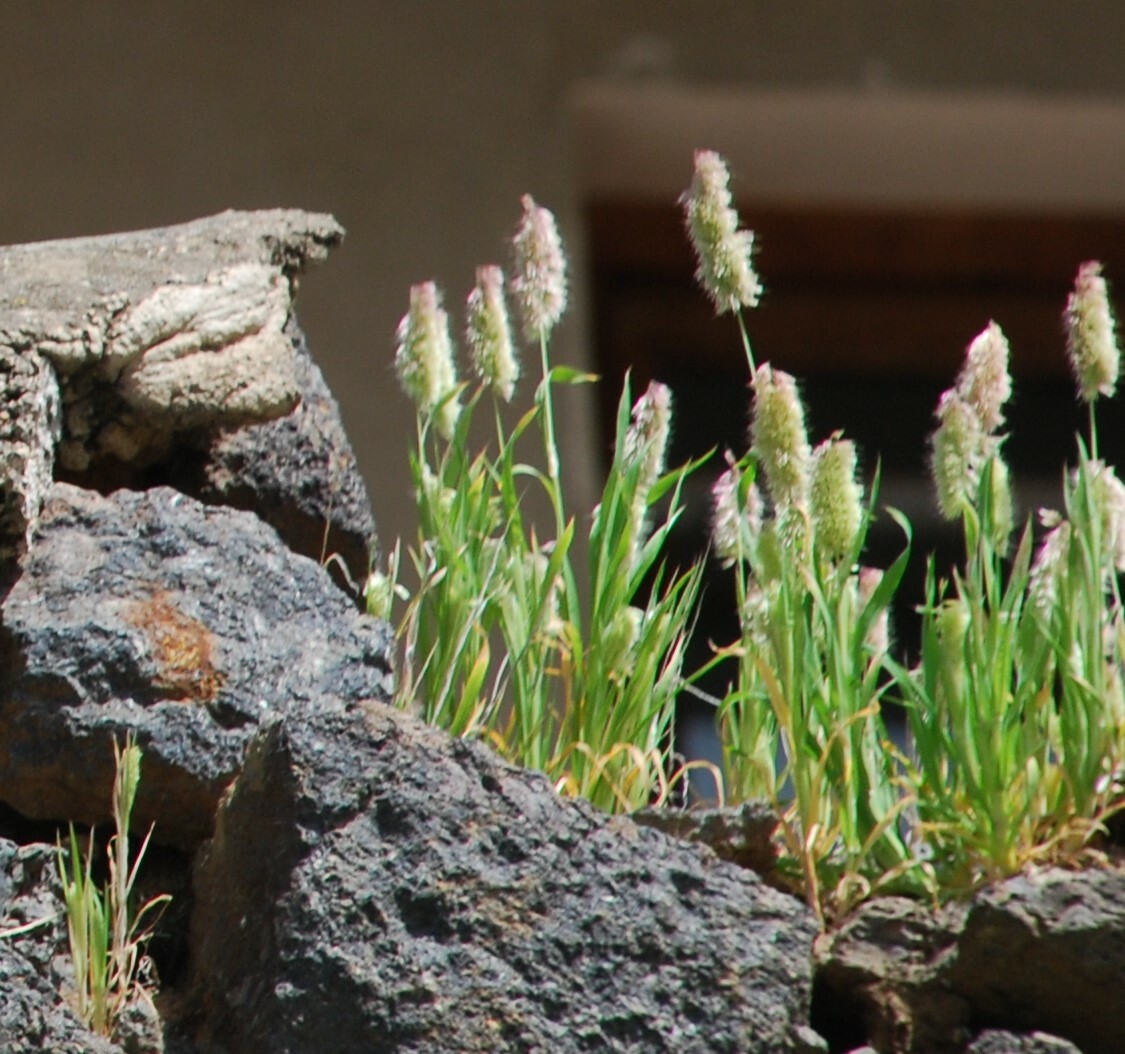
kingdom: Plantae
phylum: Tracheophyta
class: Liliopsida
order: Poales
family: Poaceae
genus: Lamarckia
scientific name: Lamarckia aurea
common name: Golden dog's-tail
